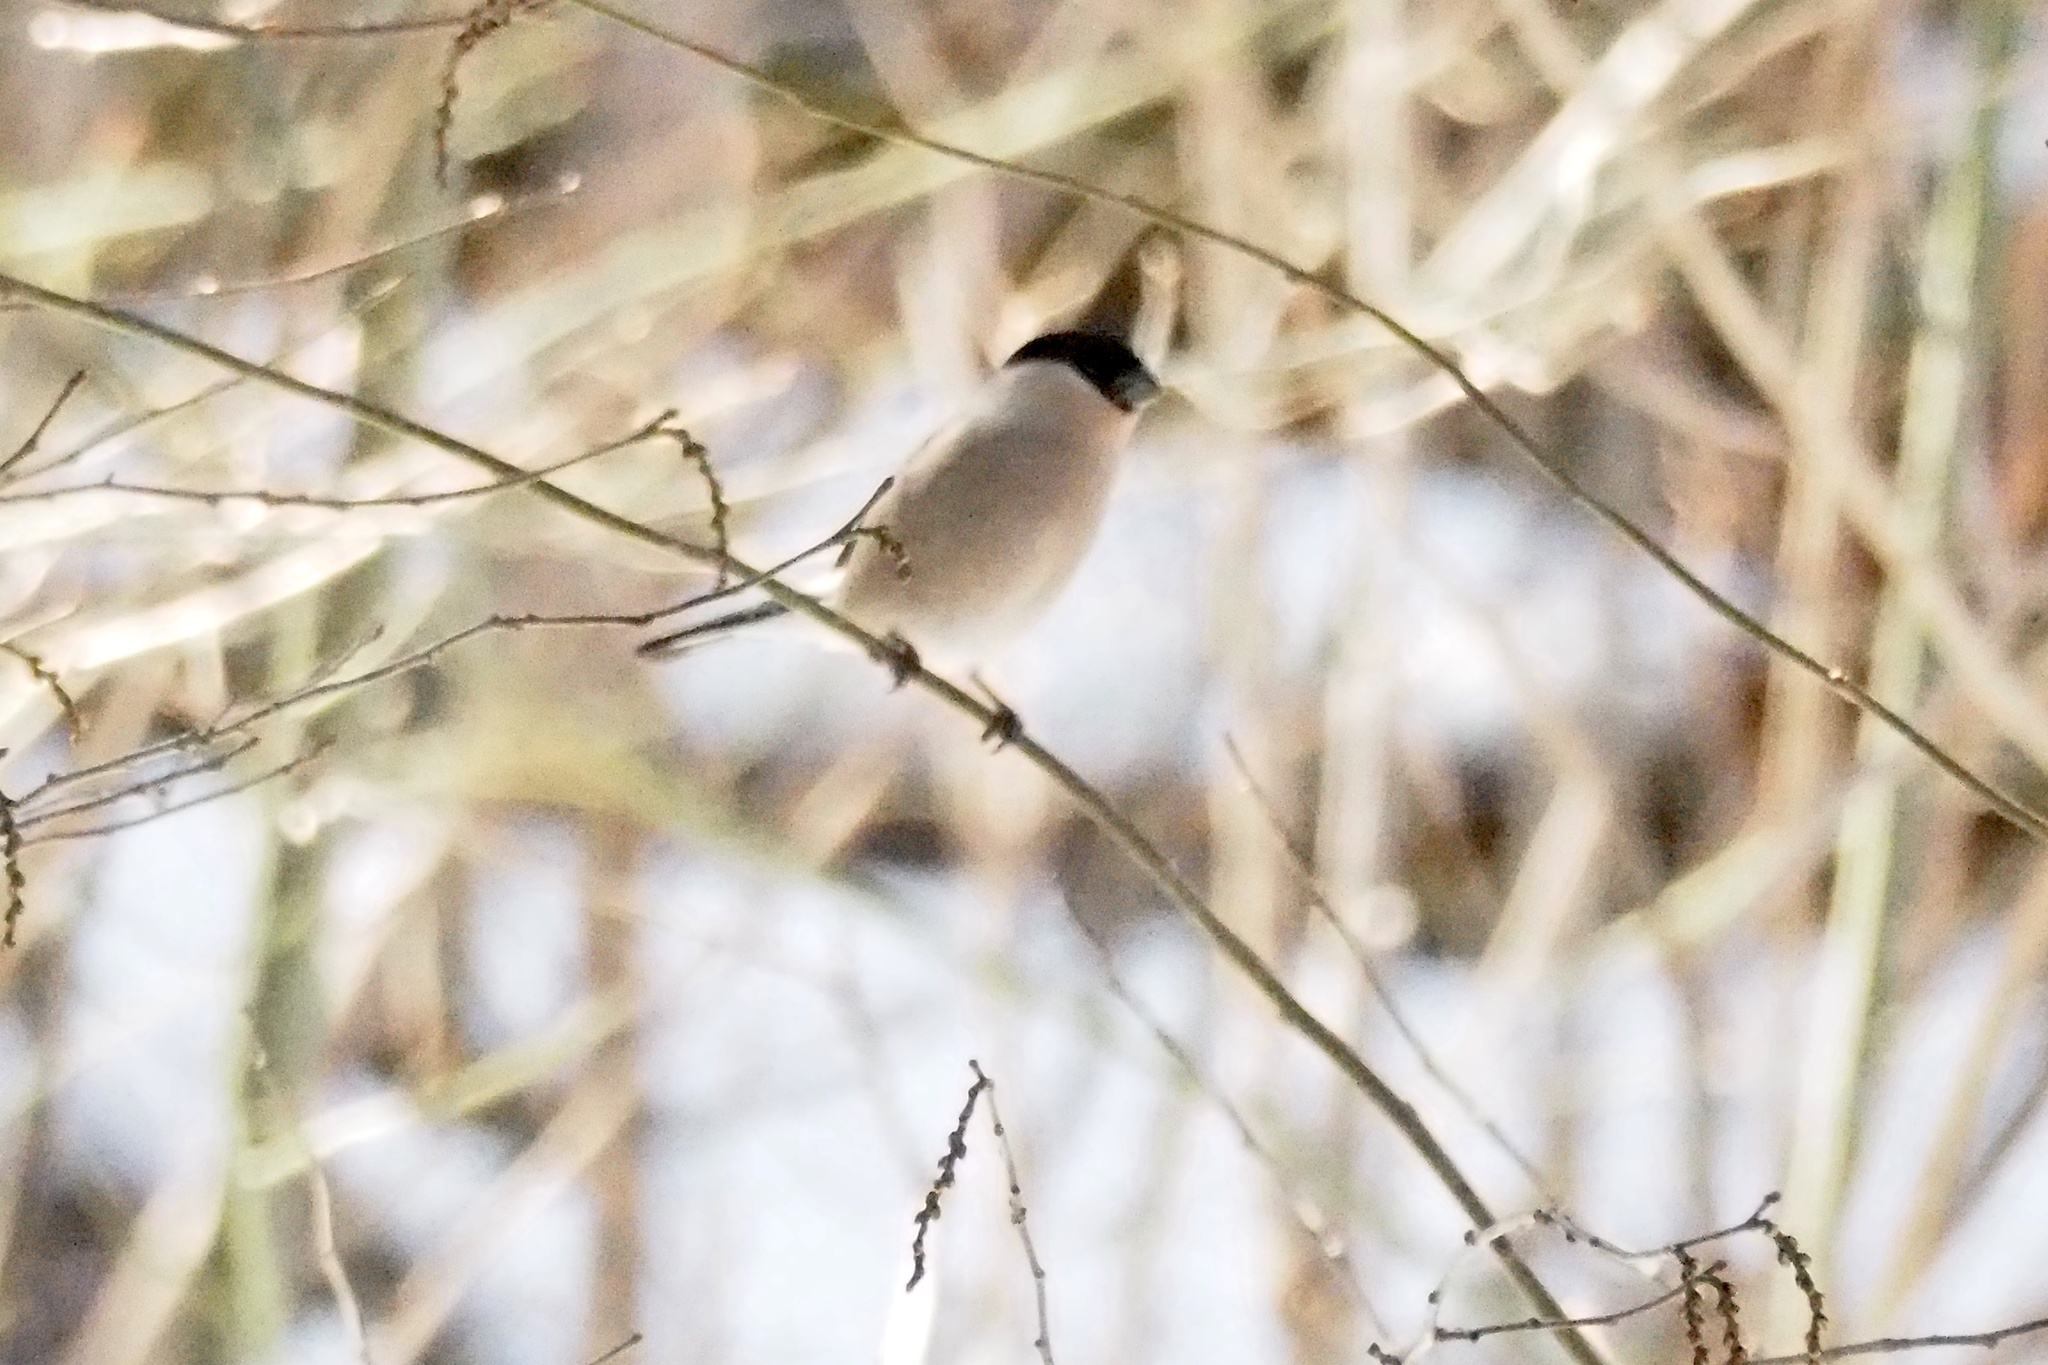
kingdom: Animalia
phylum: Chordata
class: Aves
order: Passeriformes
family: Fringillidae
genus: Pyrrhula
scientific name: Pyrrhula pyrrhula
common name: Eurasian bullfinch
